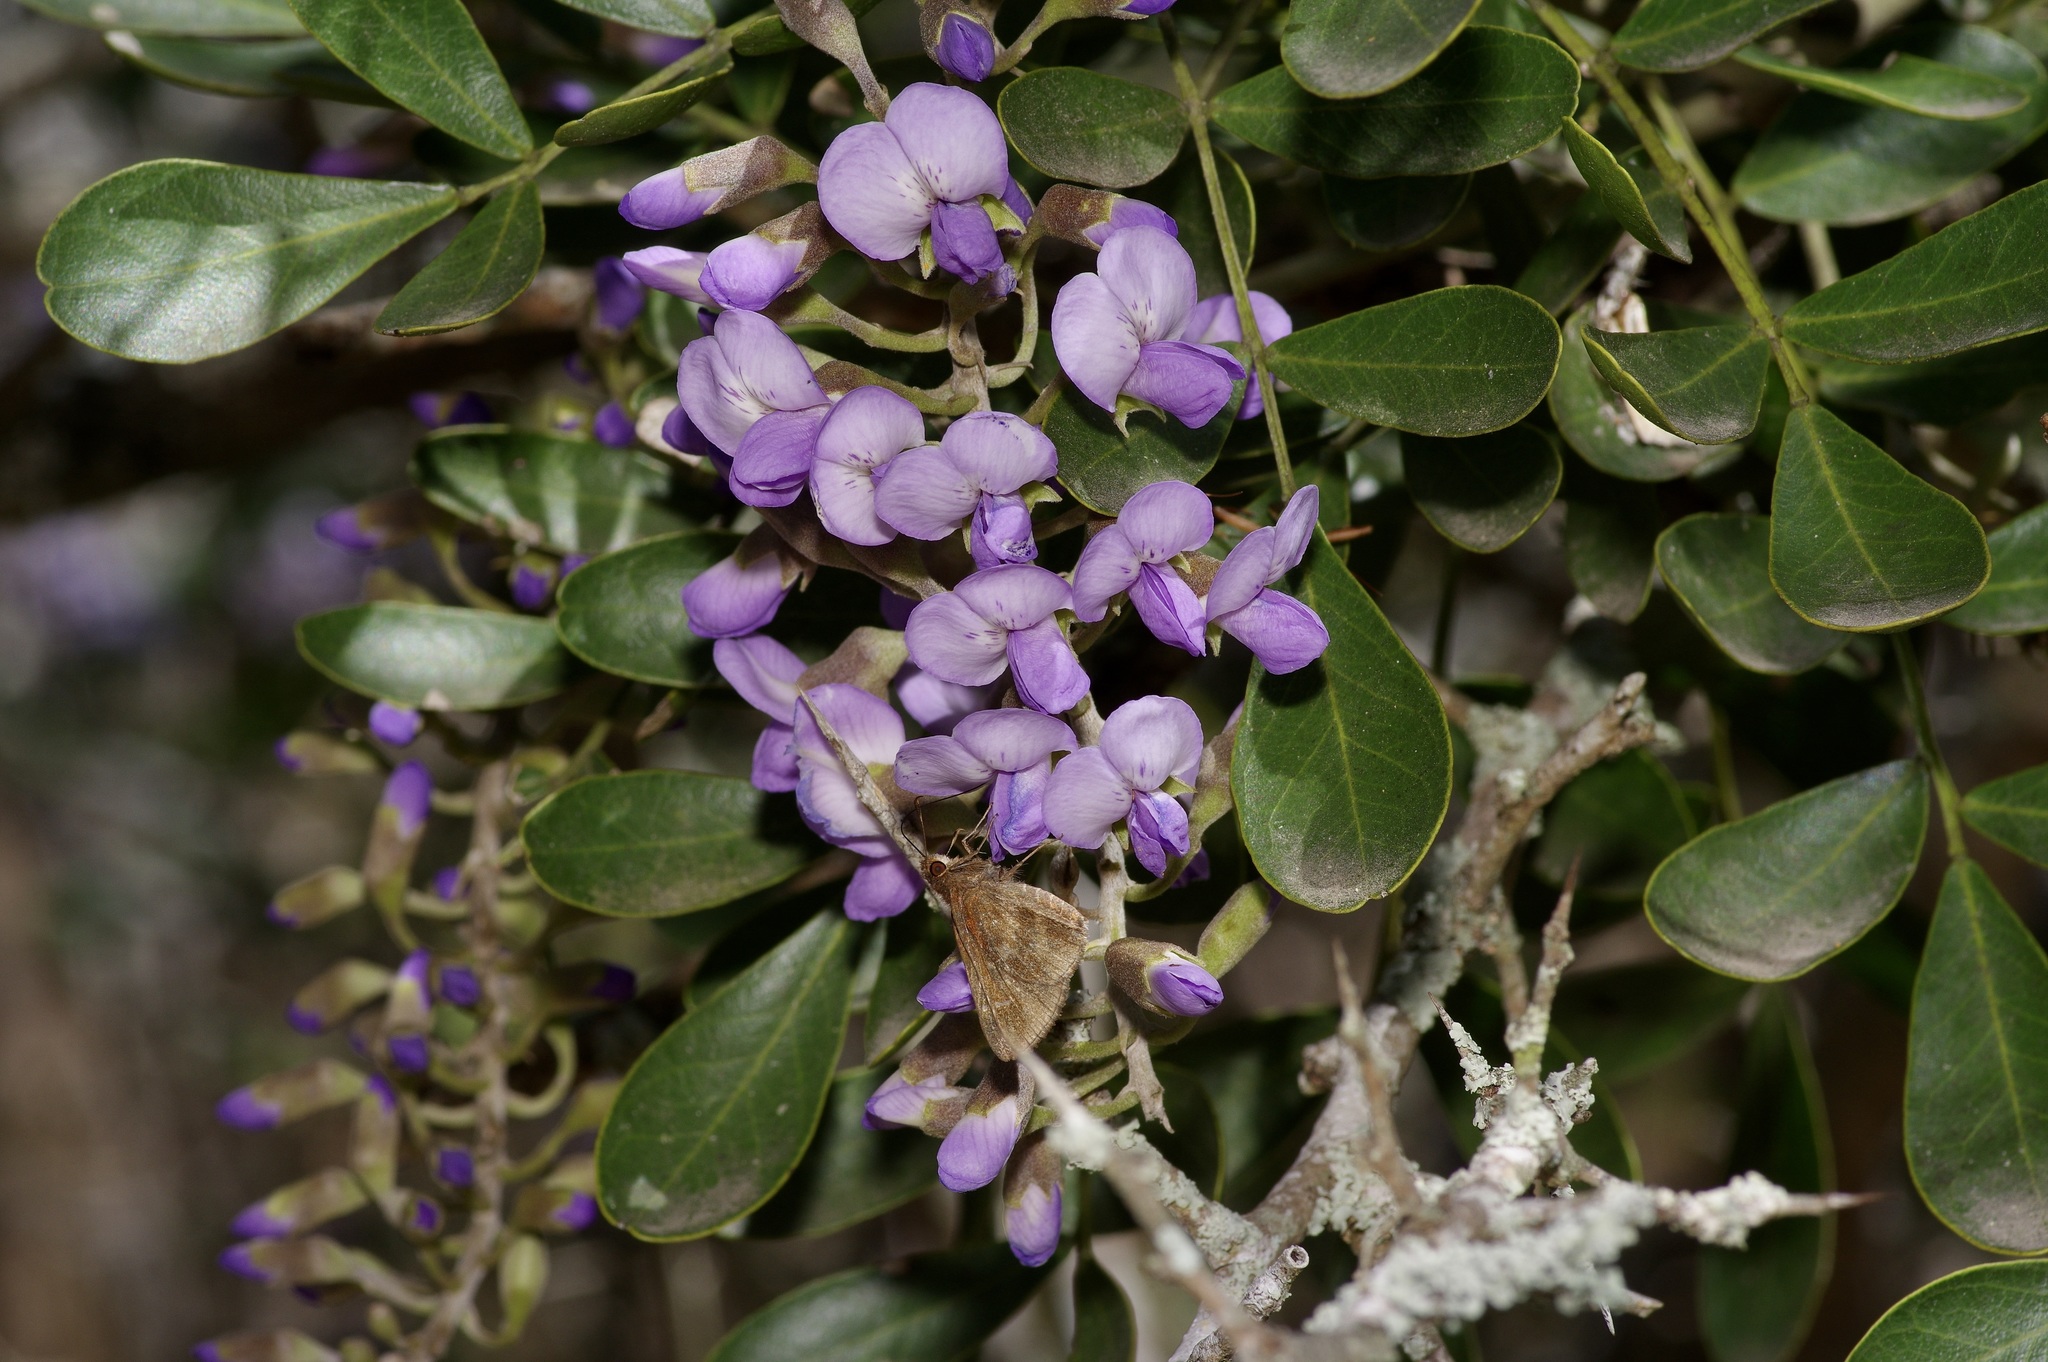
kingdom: Plantae
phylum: Tracheophyta
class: Magnoliopsida
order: Fabales
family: Fabaceae
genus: Dermatophyllum
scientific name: Dermatophyllum secundiflorum
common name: Texas-mountain-laurel
